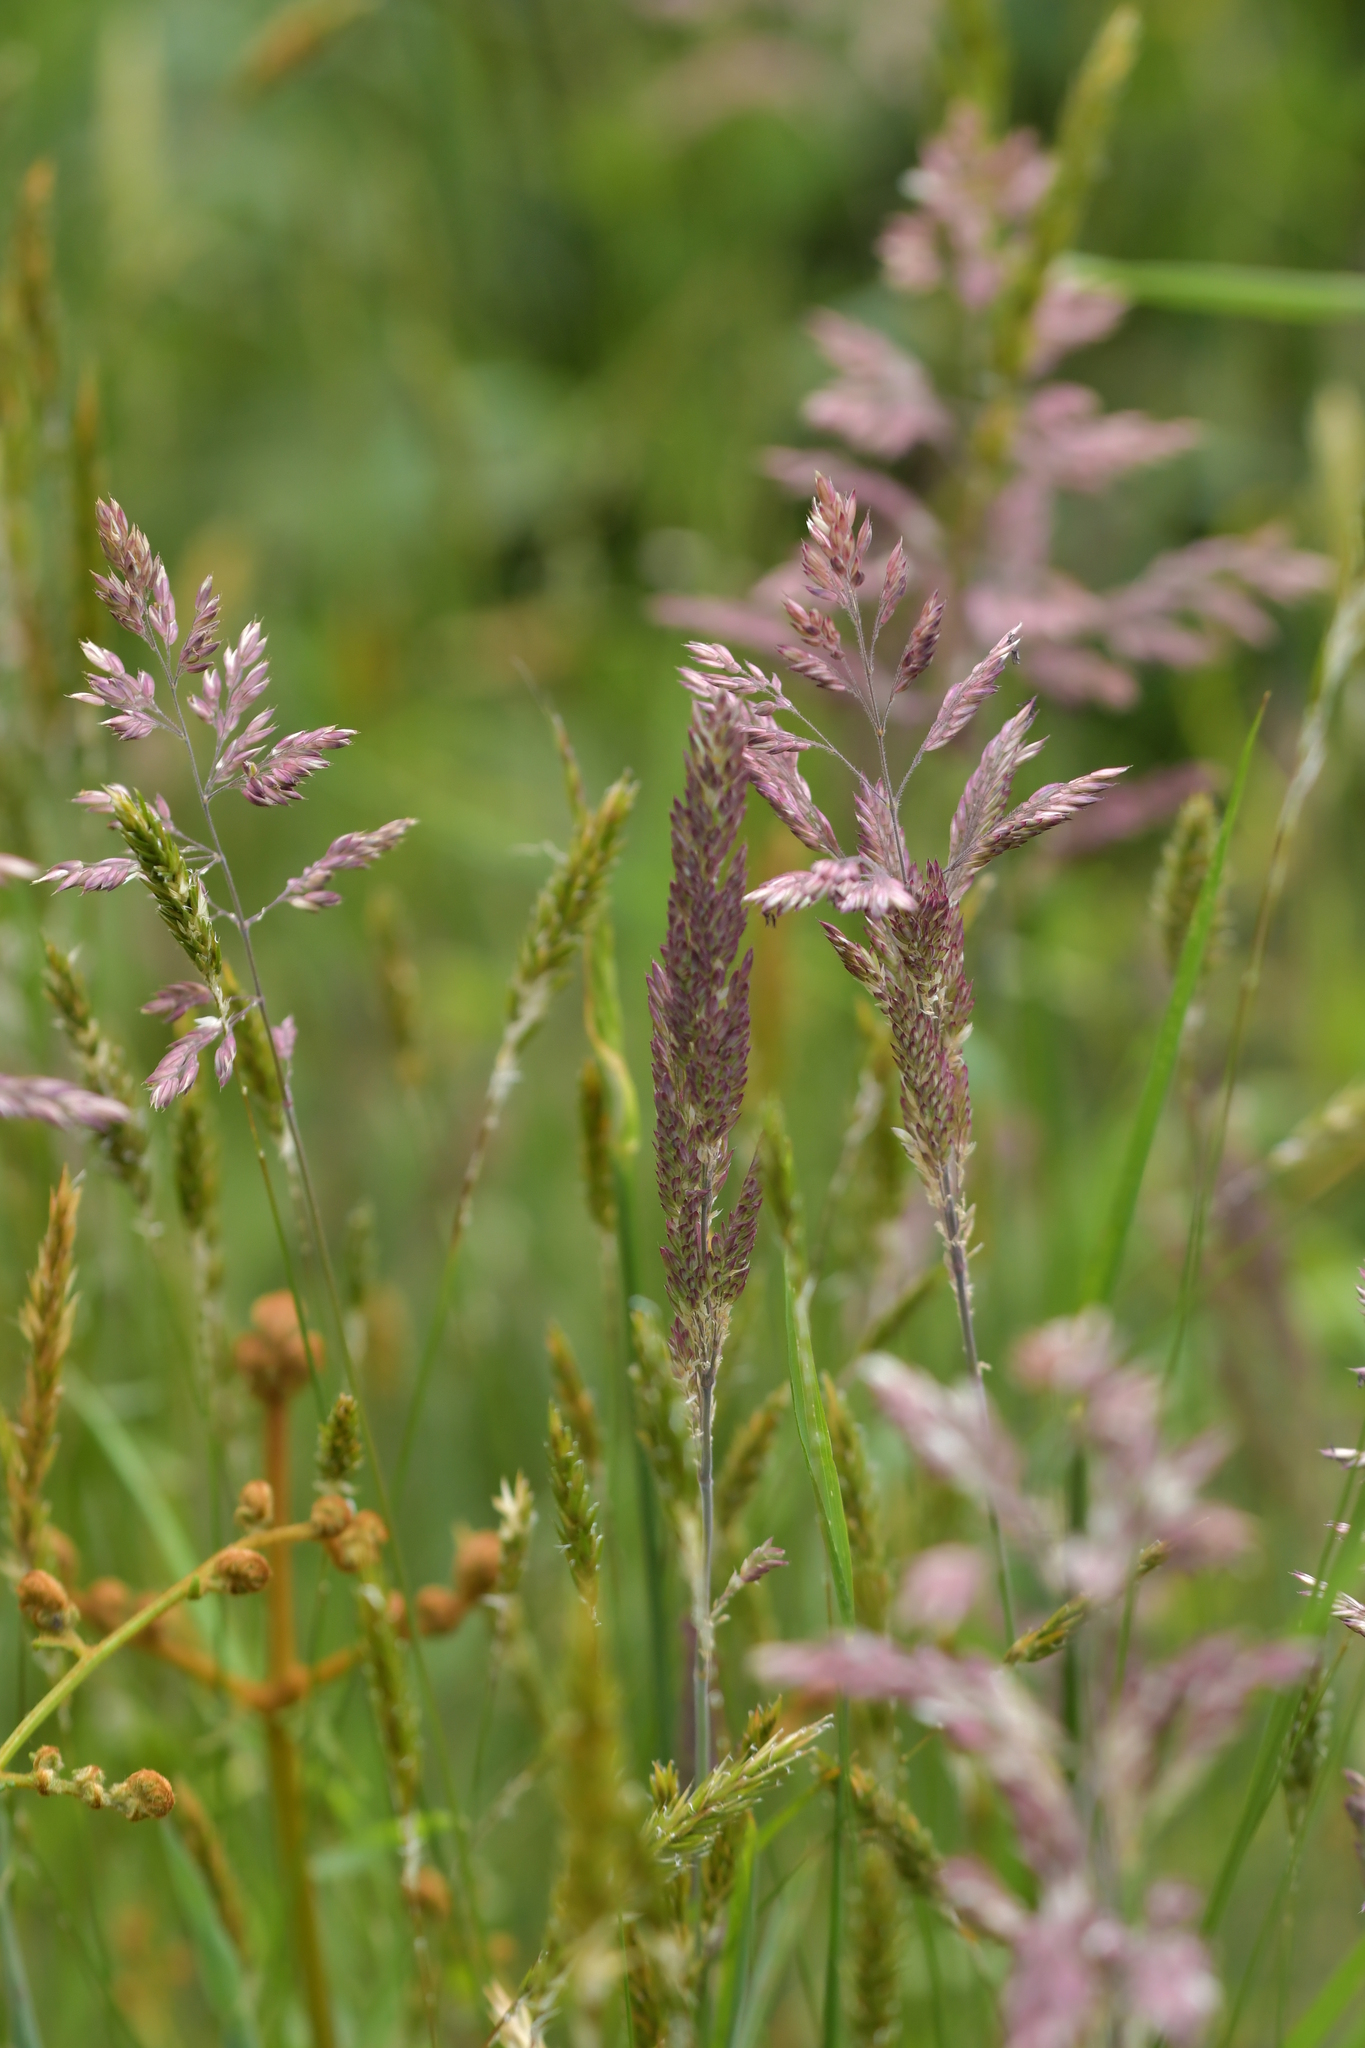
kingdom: Plantae
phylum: Tracheophyta
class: Liliopsida
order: Poales
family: Poaceae
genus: Holcus
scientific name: Holcus lanatus
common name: Yorkshire-fog
